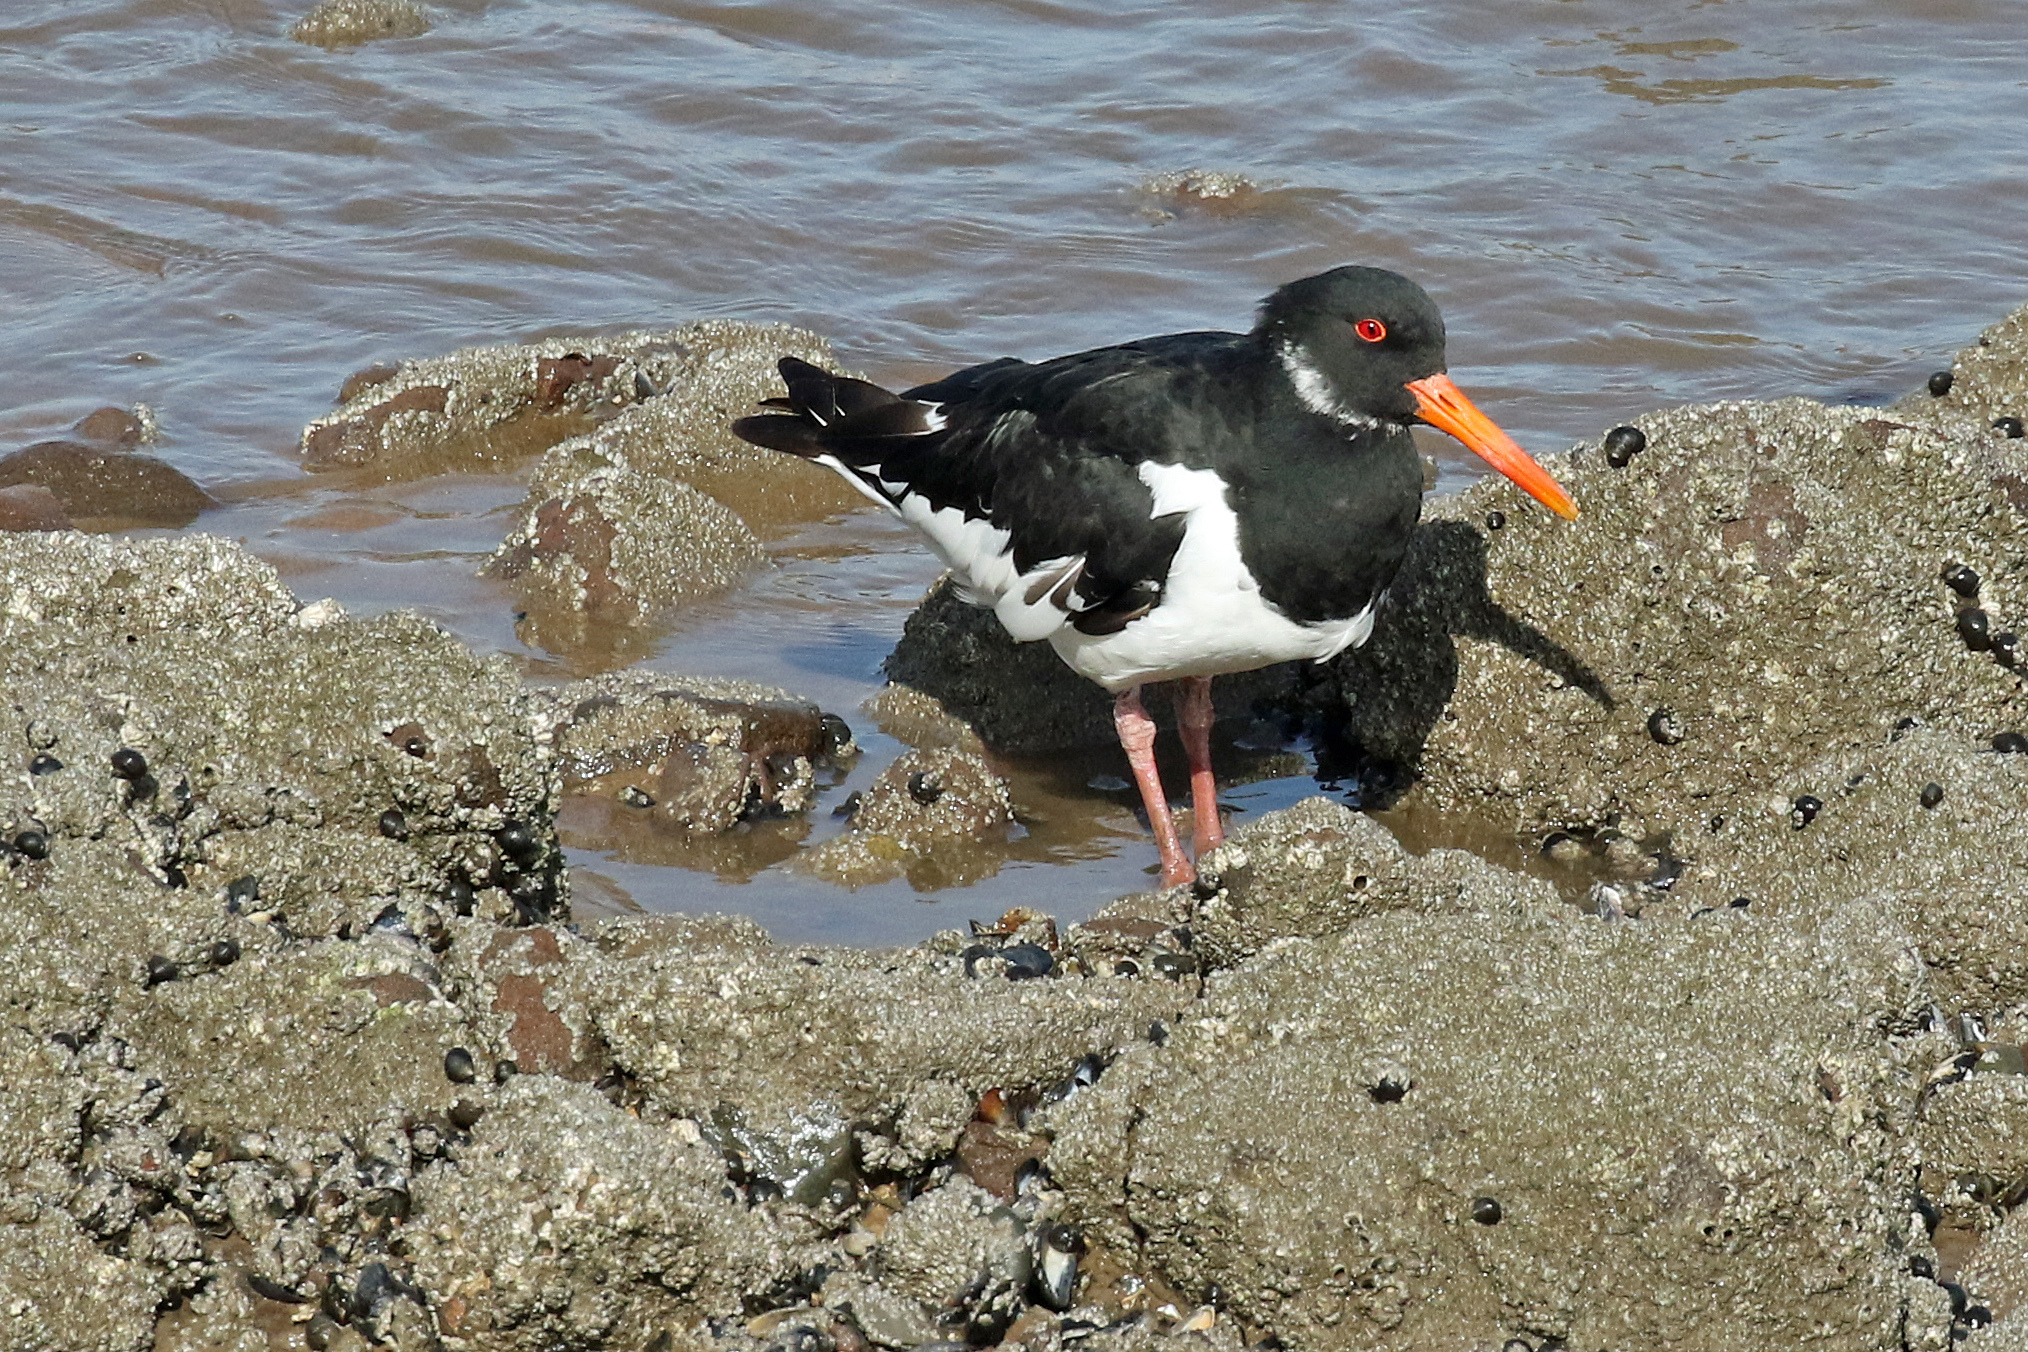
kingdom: Animalia
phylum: Chordata
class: Aves
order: Charadriiformes
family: Haematopodidae
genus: Haematopus
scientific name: Haematopus ostralegus
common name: Eurasian oystercatcher
